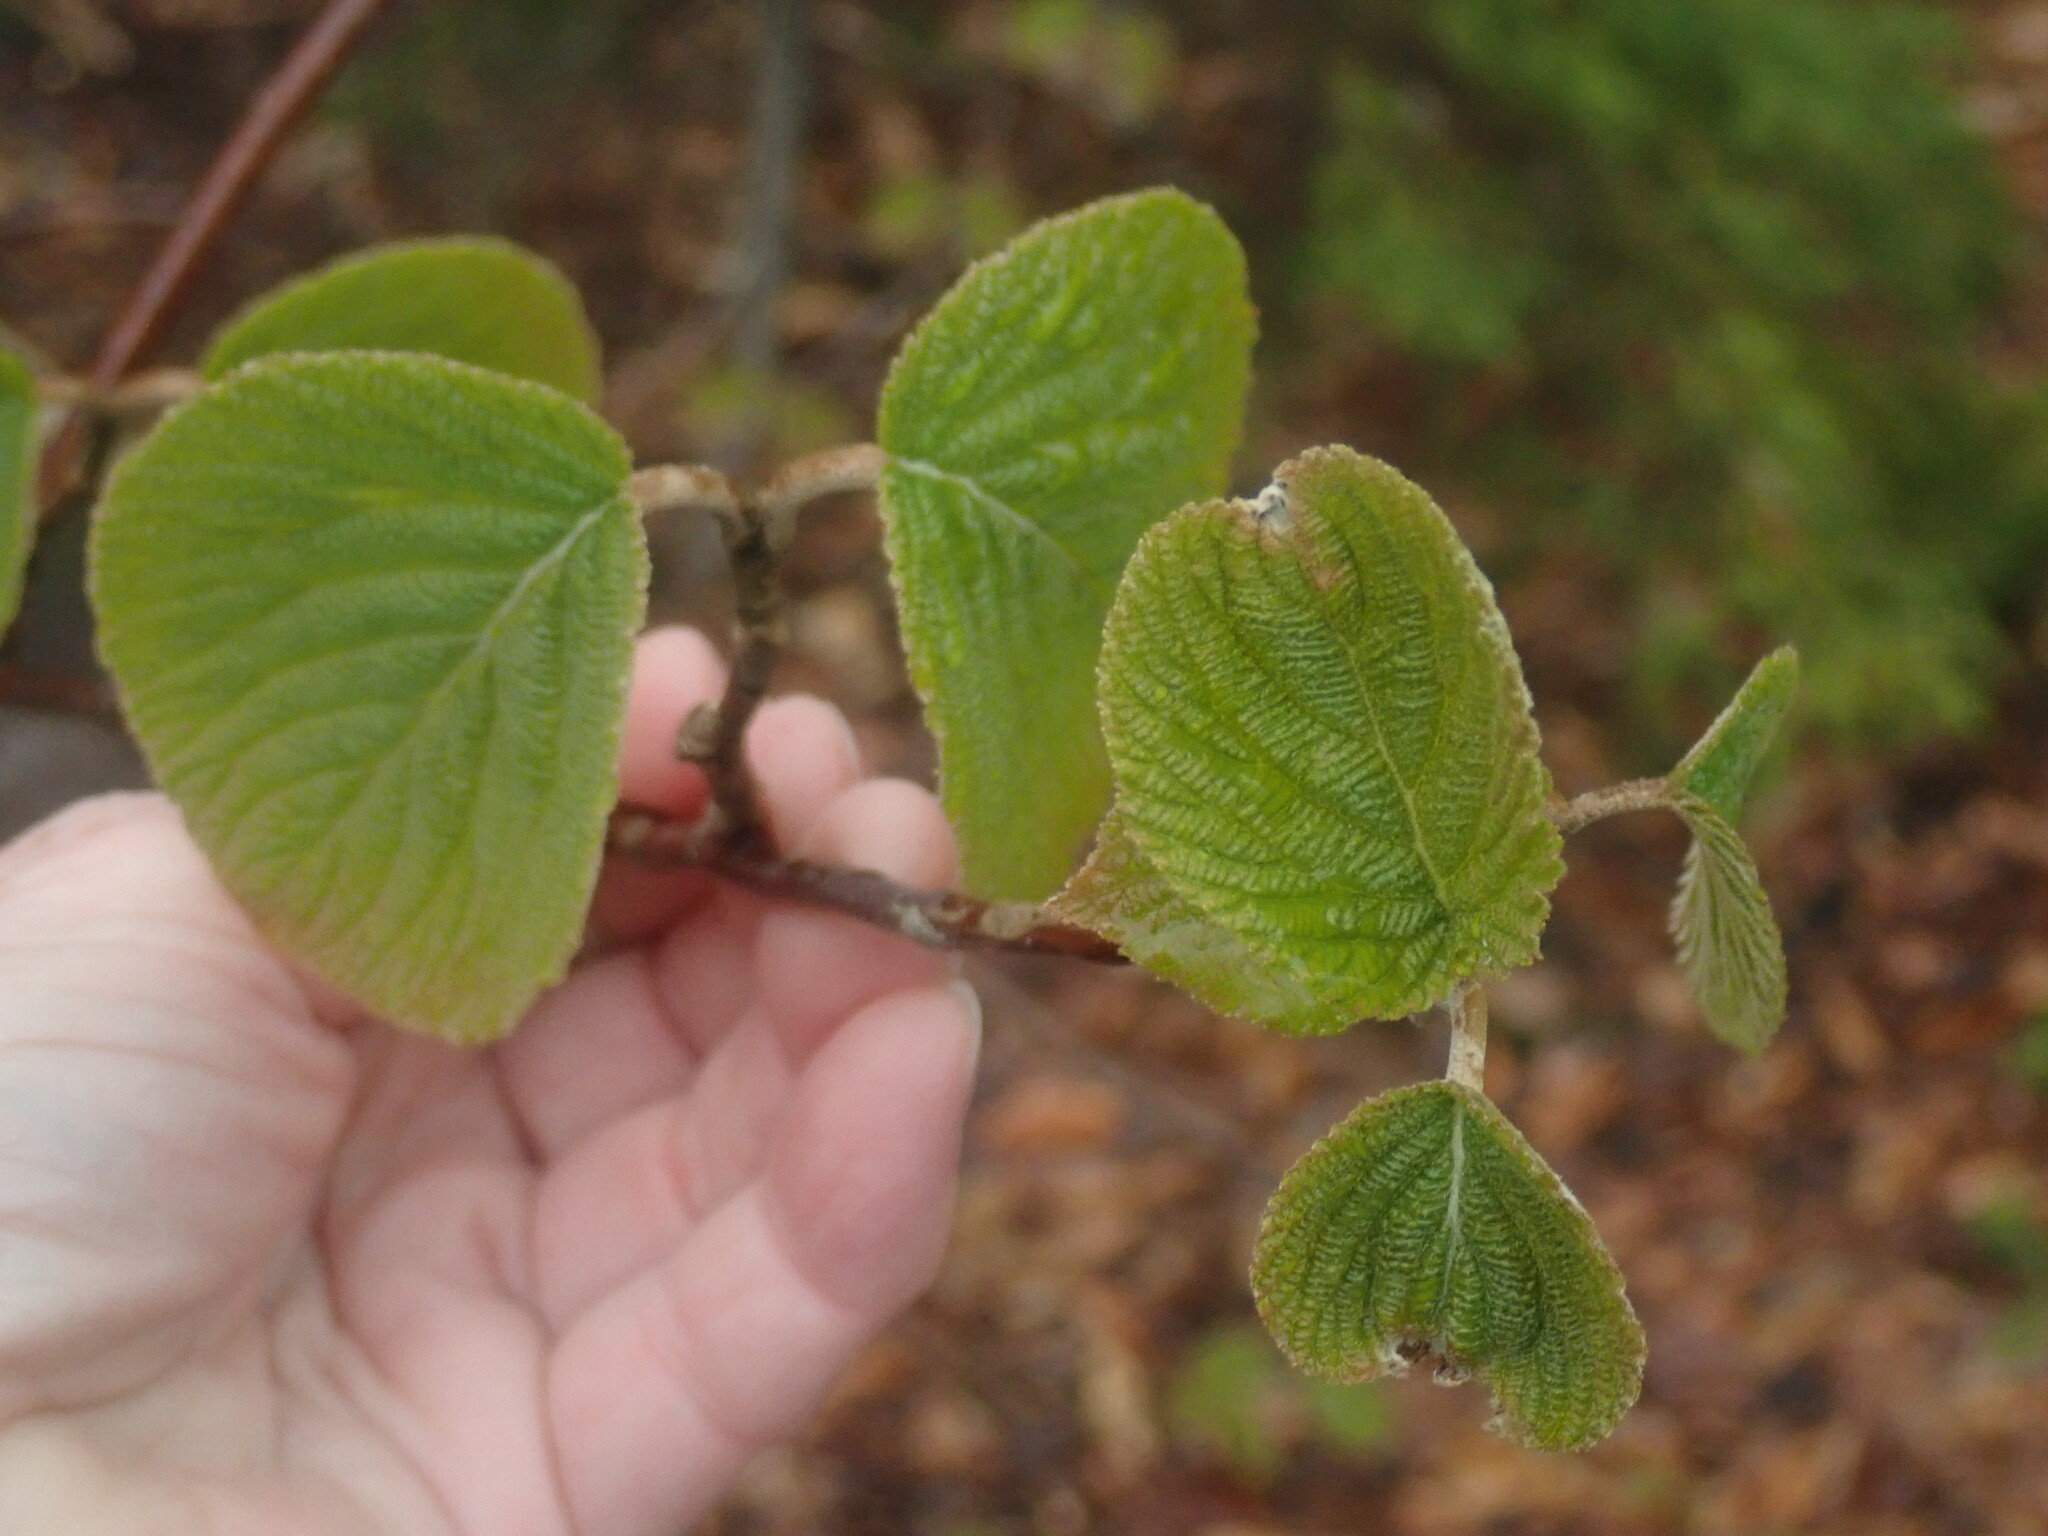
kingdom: Plantae
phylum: Tracheophyta
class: Magnoliopsida
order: Dipsacales
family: Viburnaceae
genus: Viburnum
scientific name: Viburnum lantanoides
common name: Hobblebush
